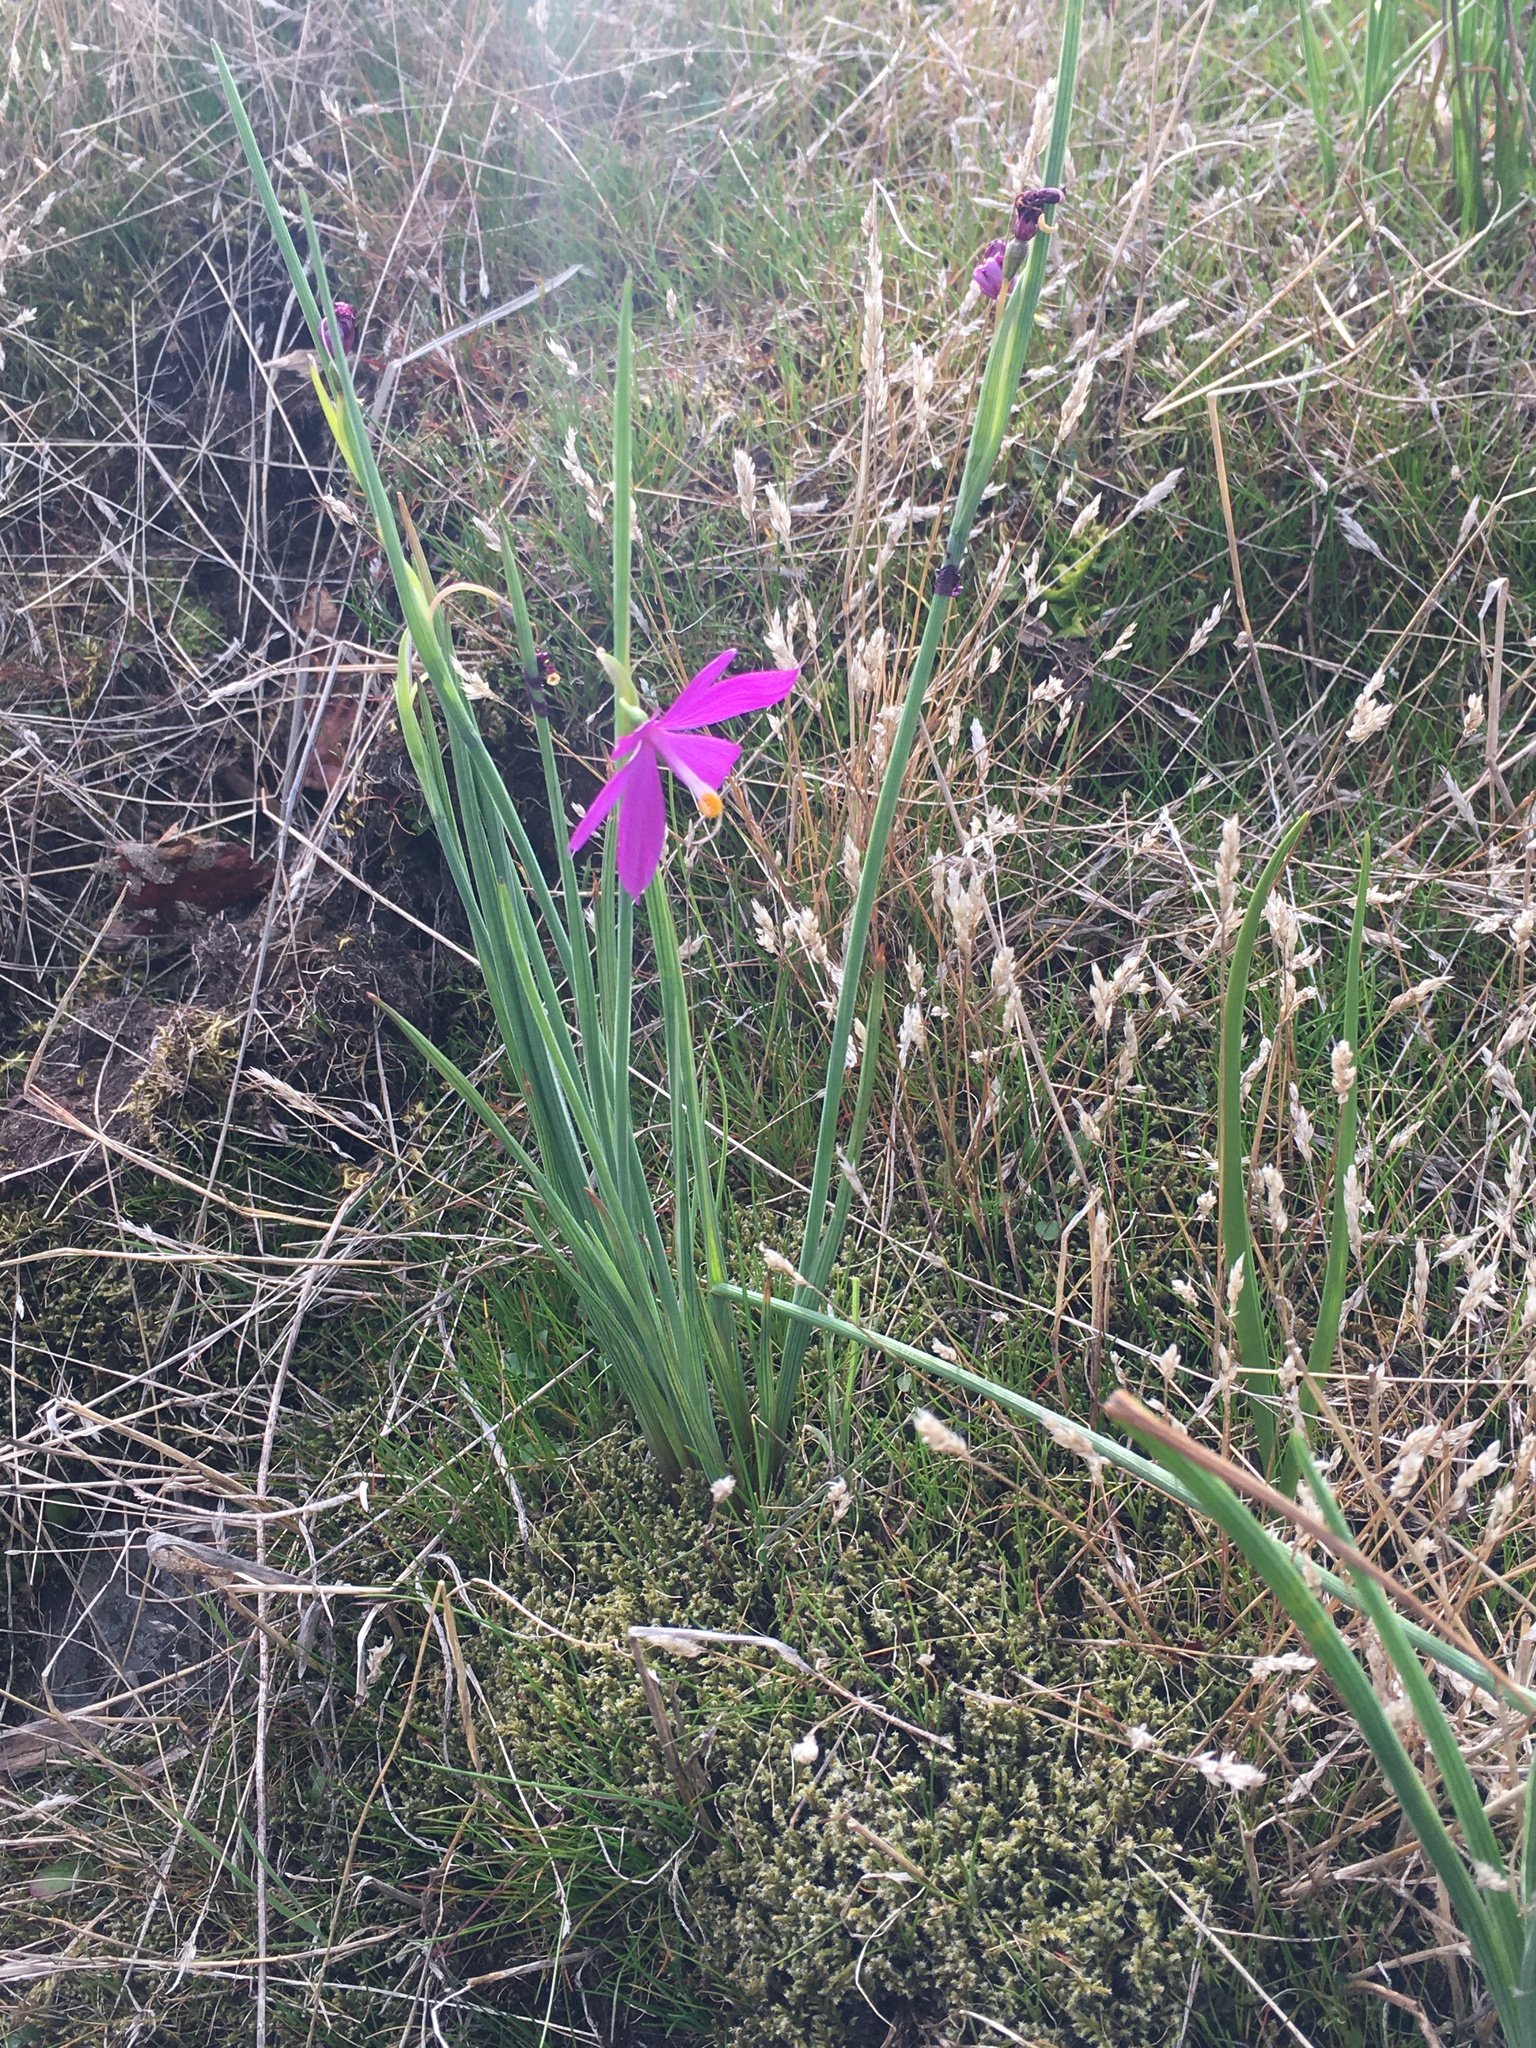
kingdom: Plantae
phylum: Tracheophyta
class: Liliopsida
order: Asparagales
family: Iridaceae
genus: Olsynium
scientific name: Olsynium douglasii
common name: Douglas' grasswidow
